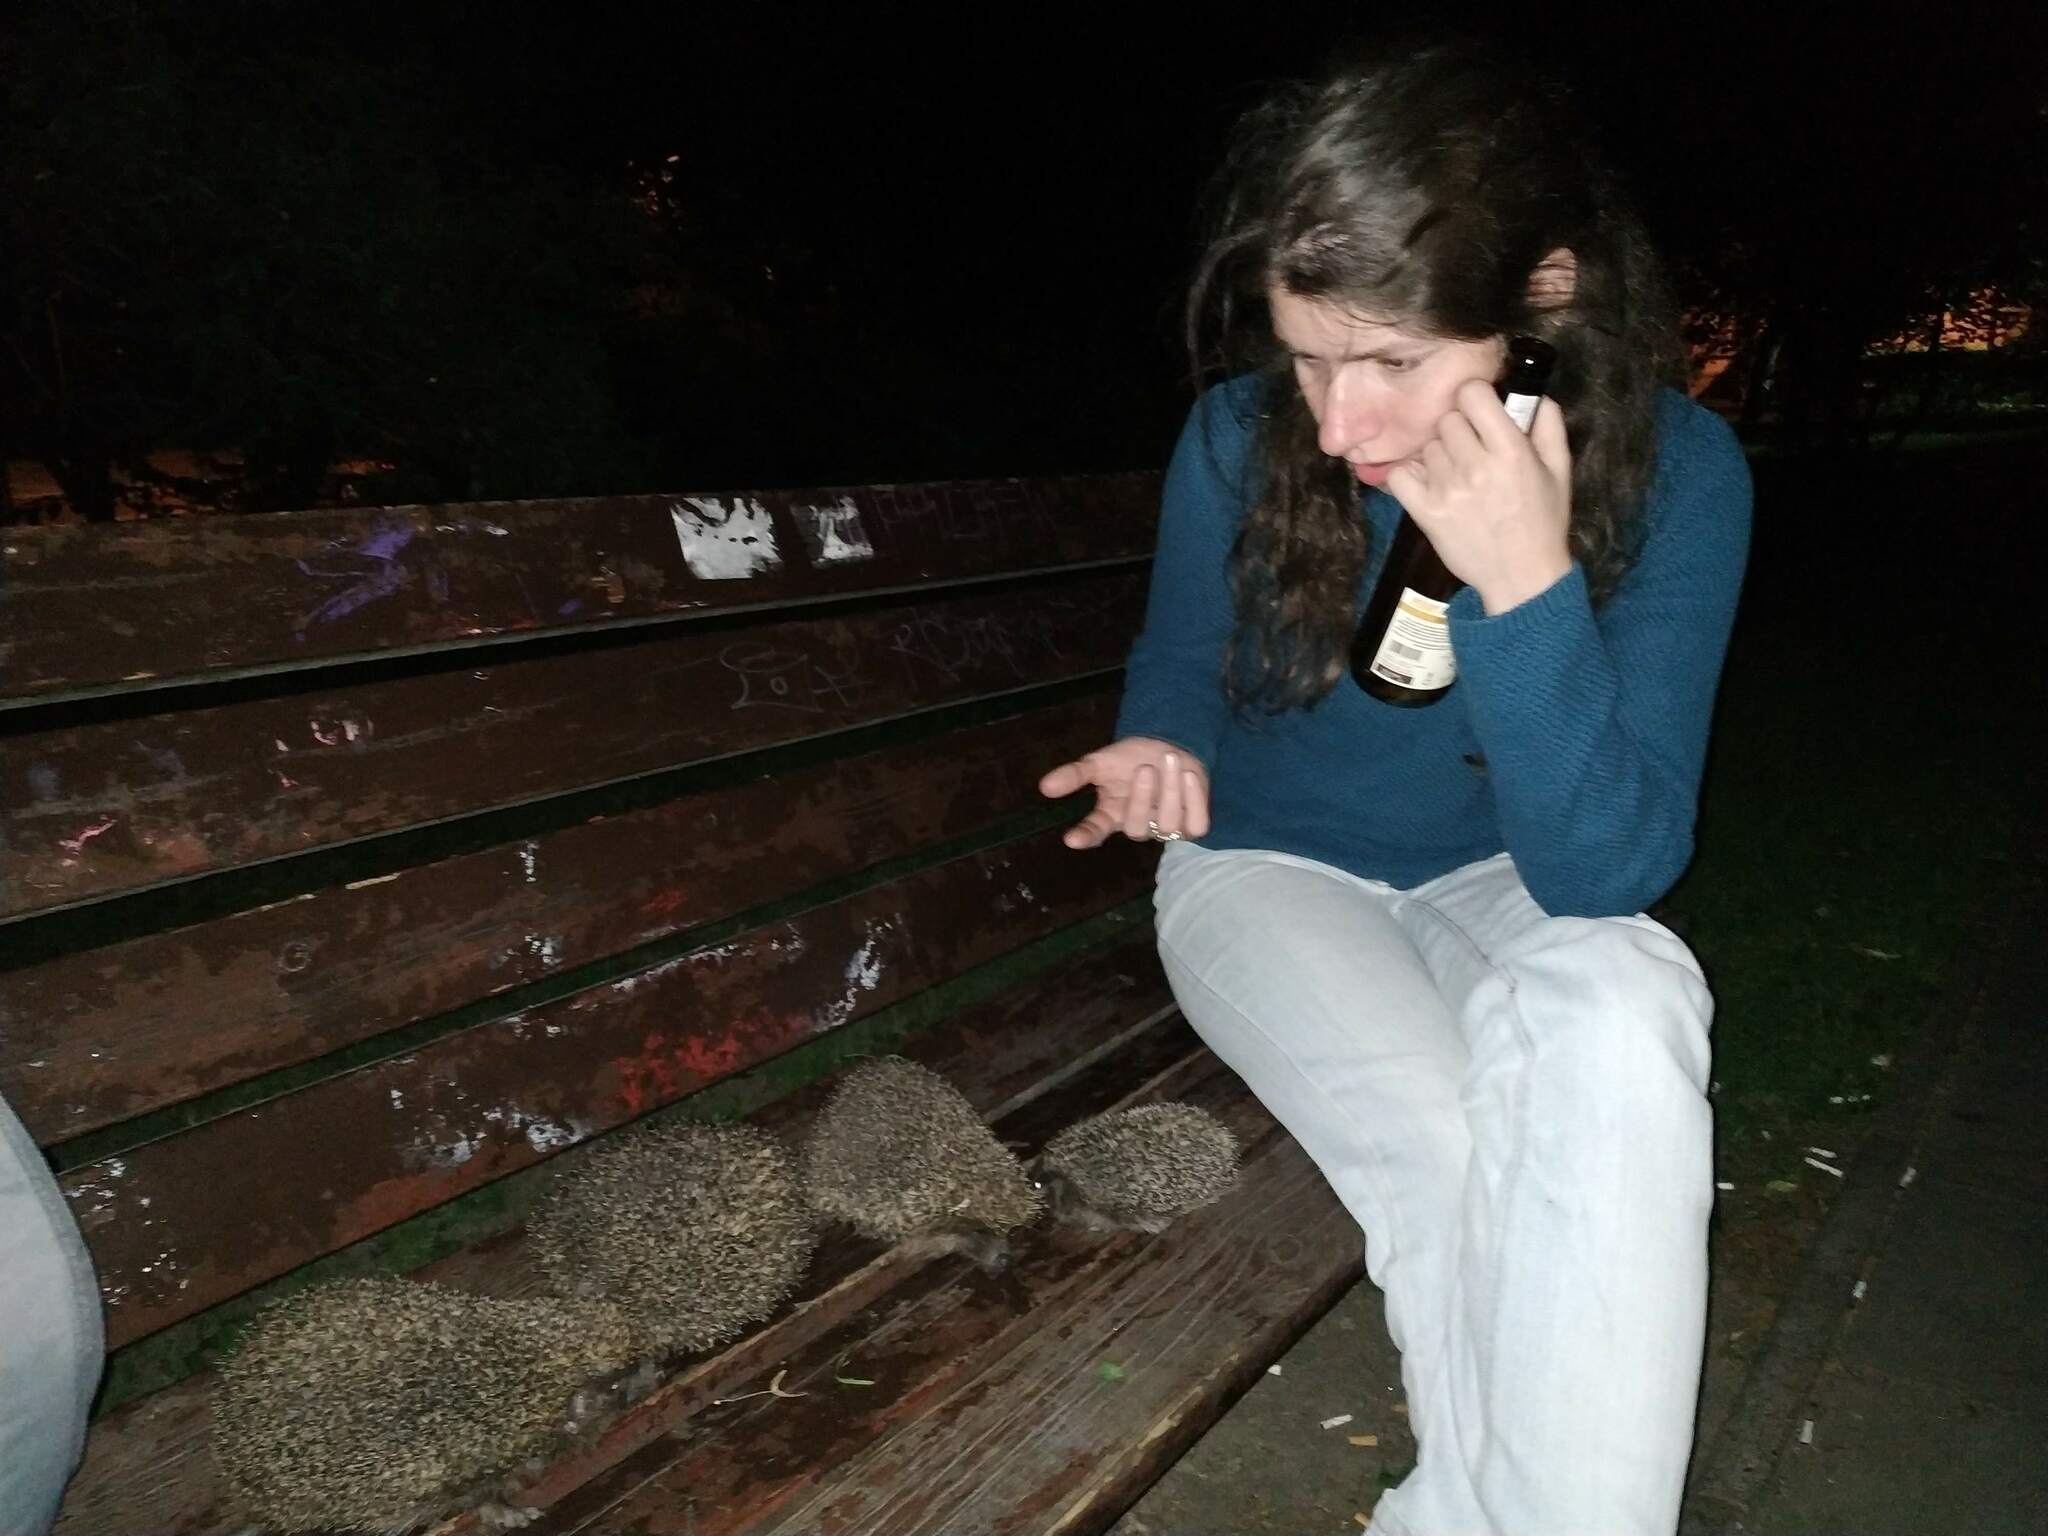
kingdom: Animalia
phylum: Chordata
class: Mammalia
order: Erinaceomorpha
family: Erinaceidae
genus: Erinaceus
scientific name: Erinaceus europaeus
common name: West european hedgehog
